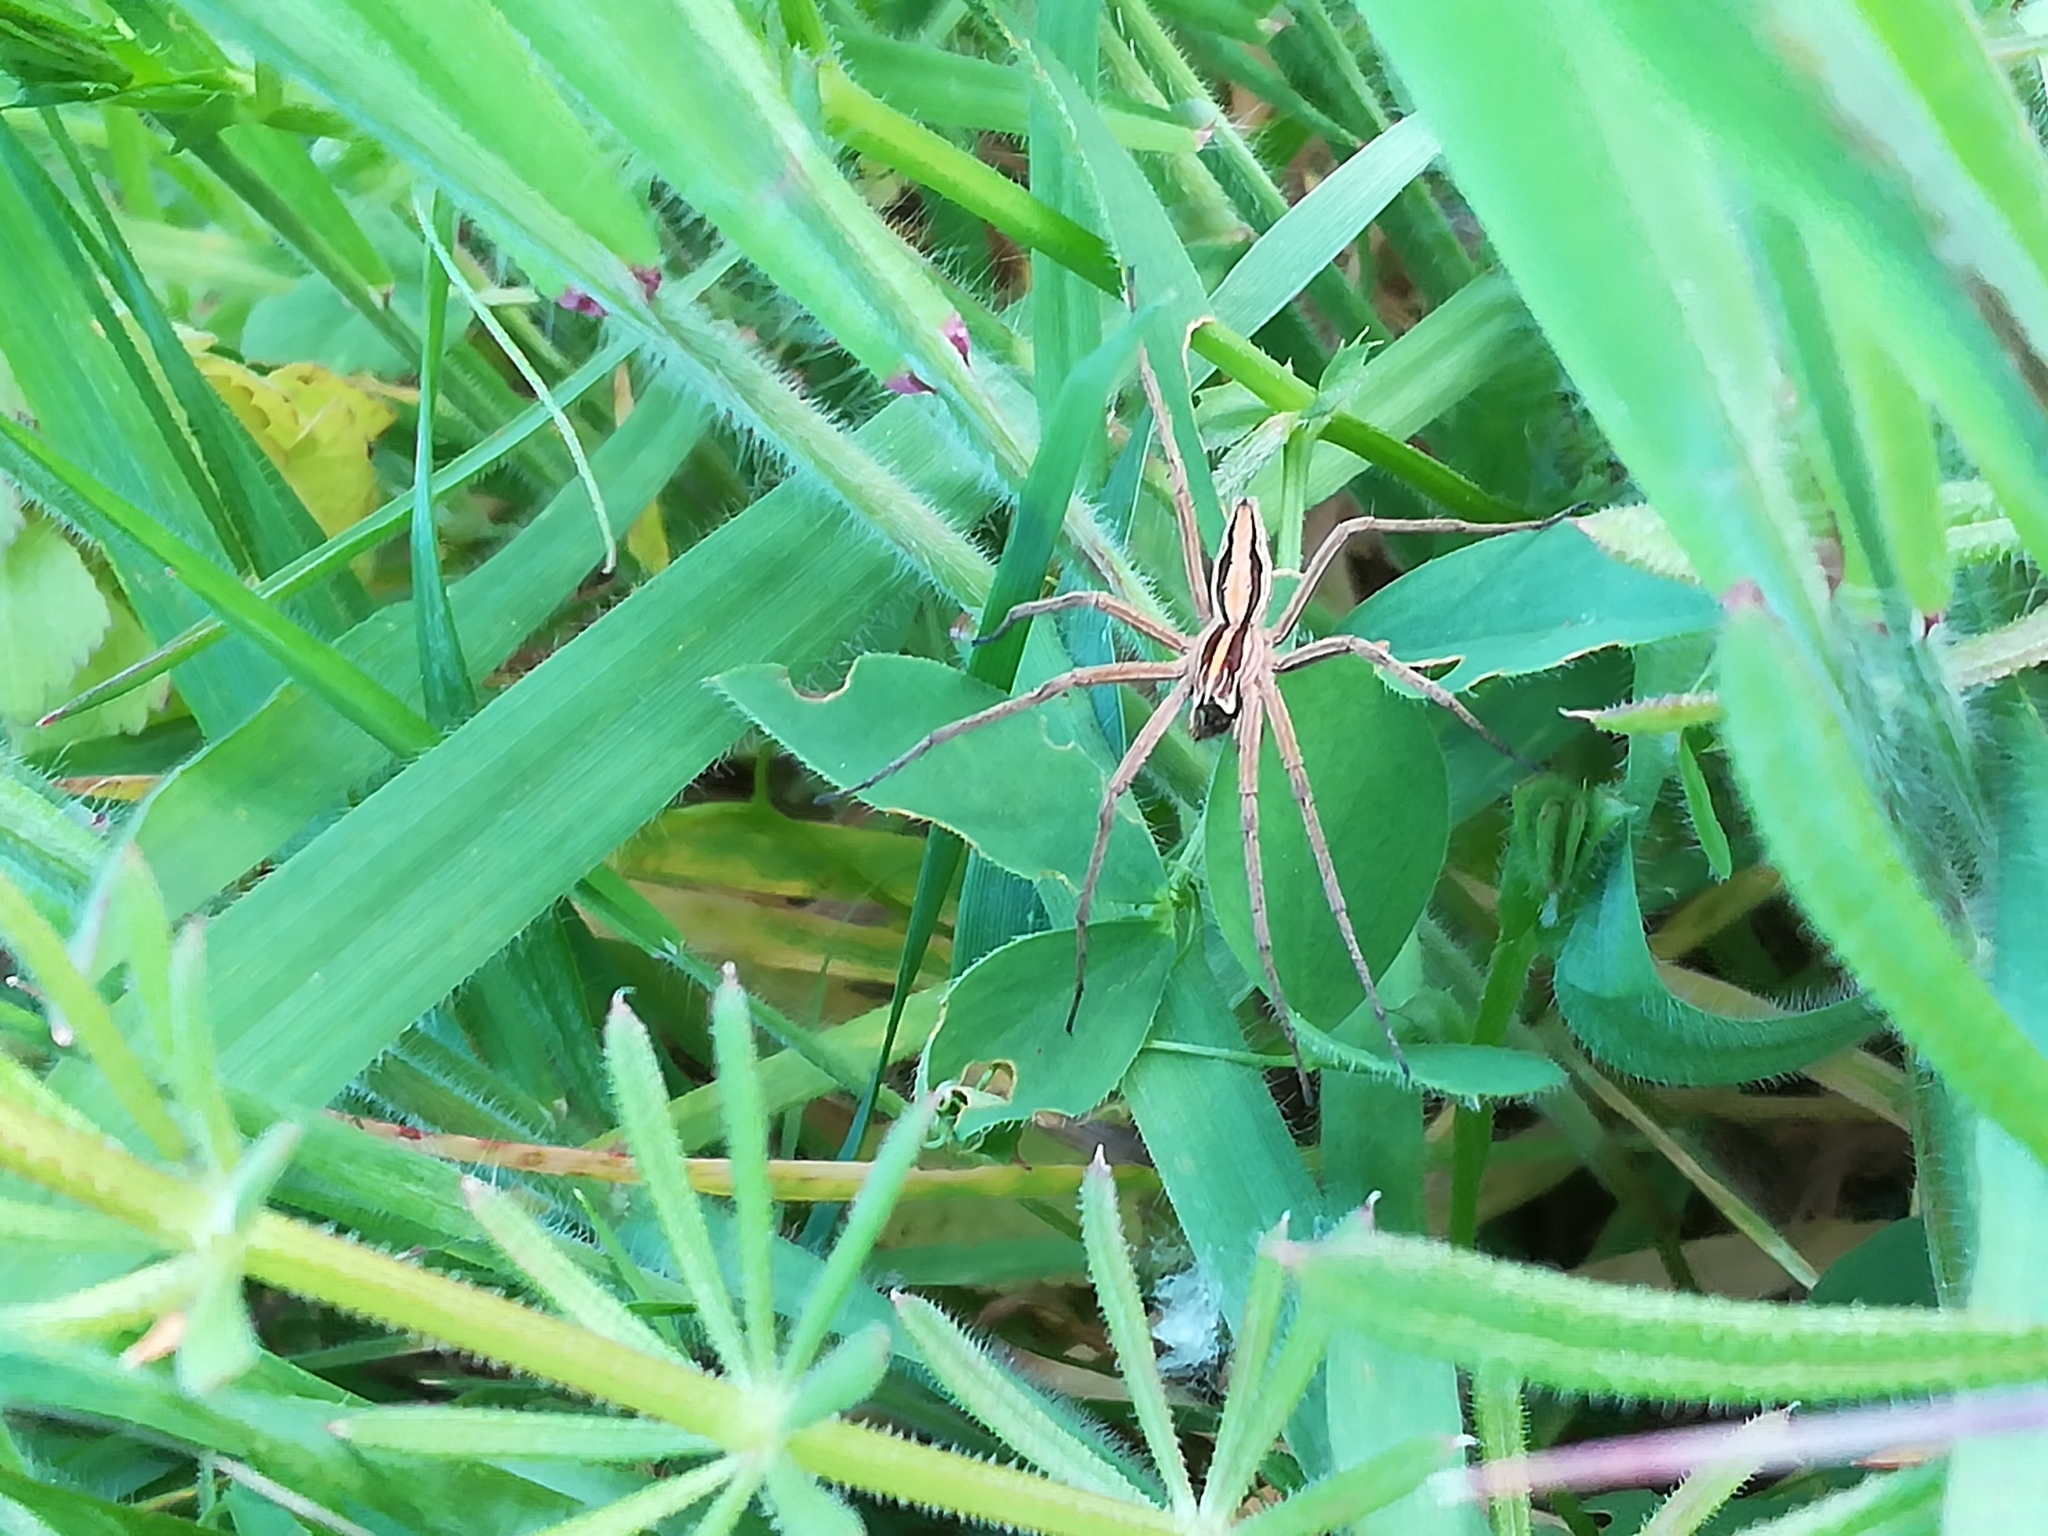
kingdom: Animalia
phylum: Arthropoda
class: Arachnida
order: Araneae
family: Pisauridae
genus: Pisaura
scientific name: Pisaura
